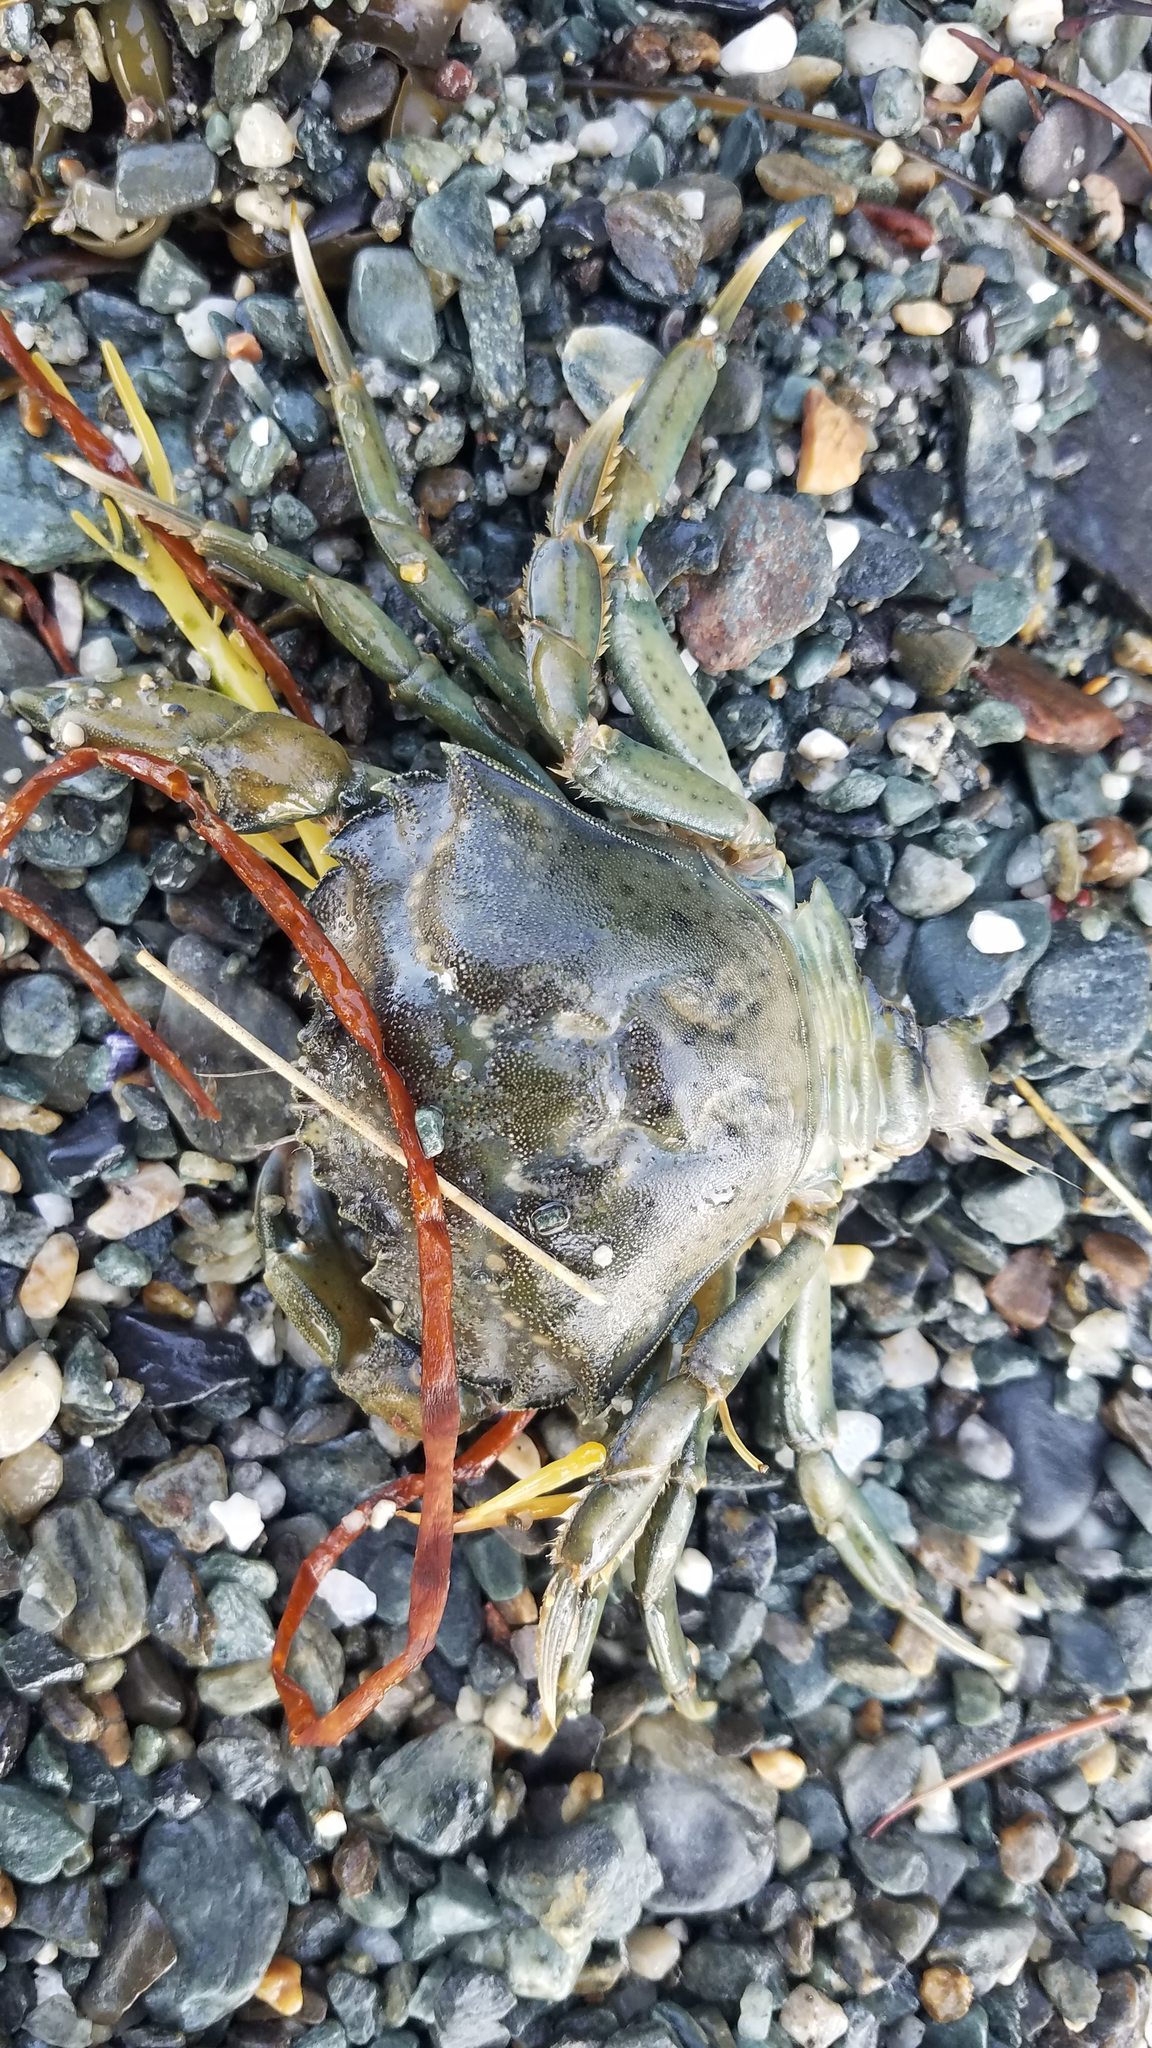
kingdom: Animalia
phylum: Arthropoda
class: Malacostraca
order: Decapoda
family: Carcinidae
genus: Carcinus
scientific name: Carcinus maenas
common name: European green crab
